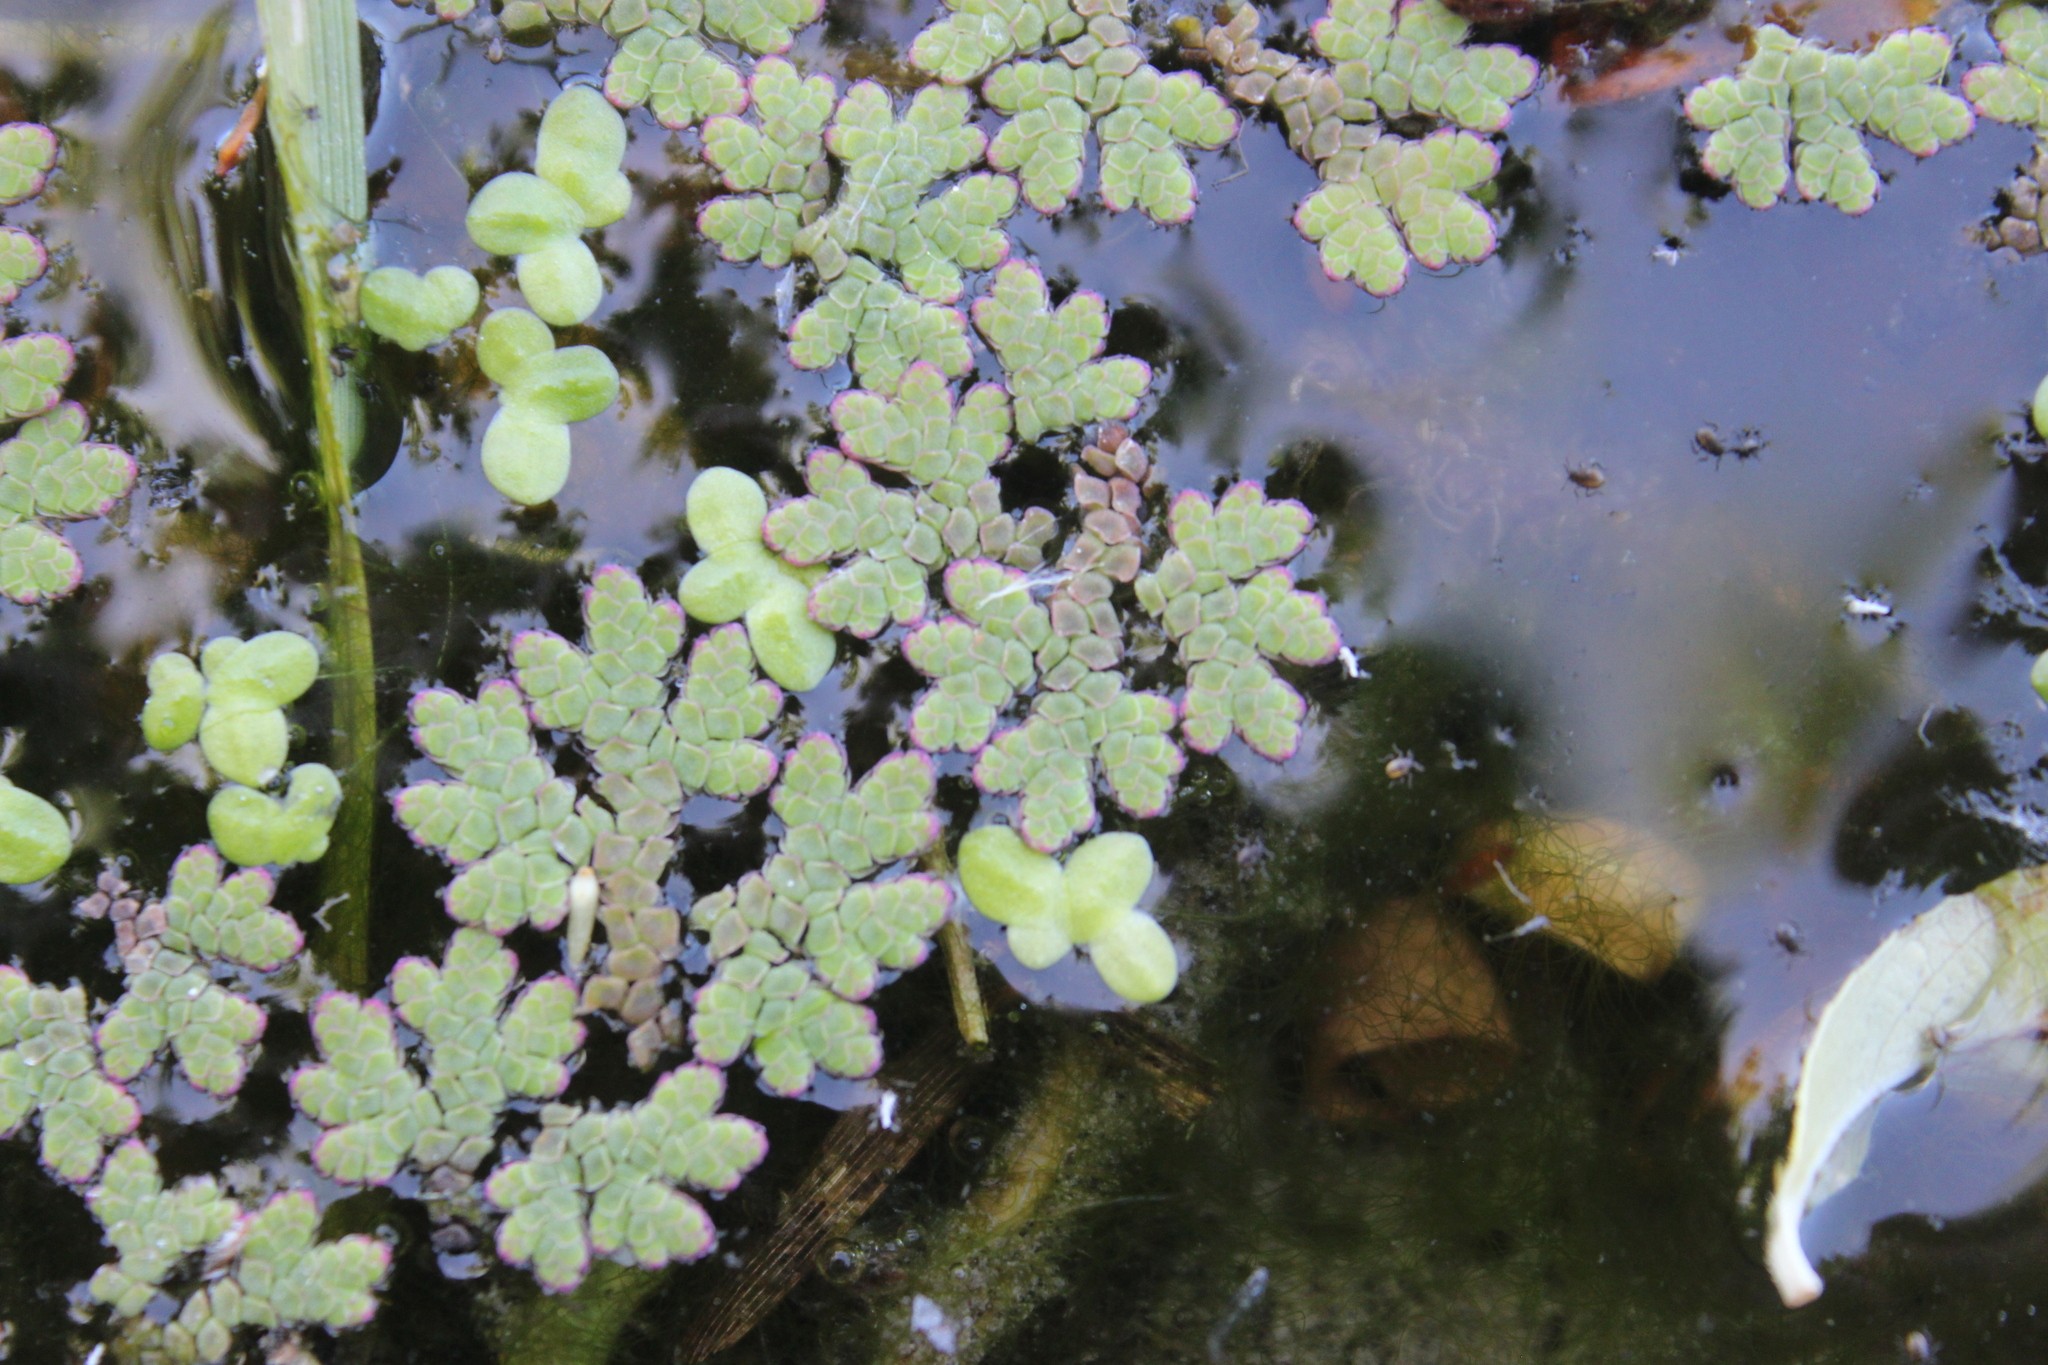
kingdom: Plantae
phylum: Tracheophyta
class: Polypodiopsida
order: Salviniales
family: Salviniaceae
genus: Azolla
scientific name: Azolla rubra
